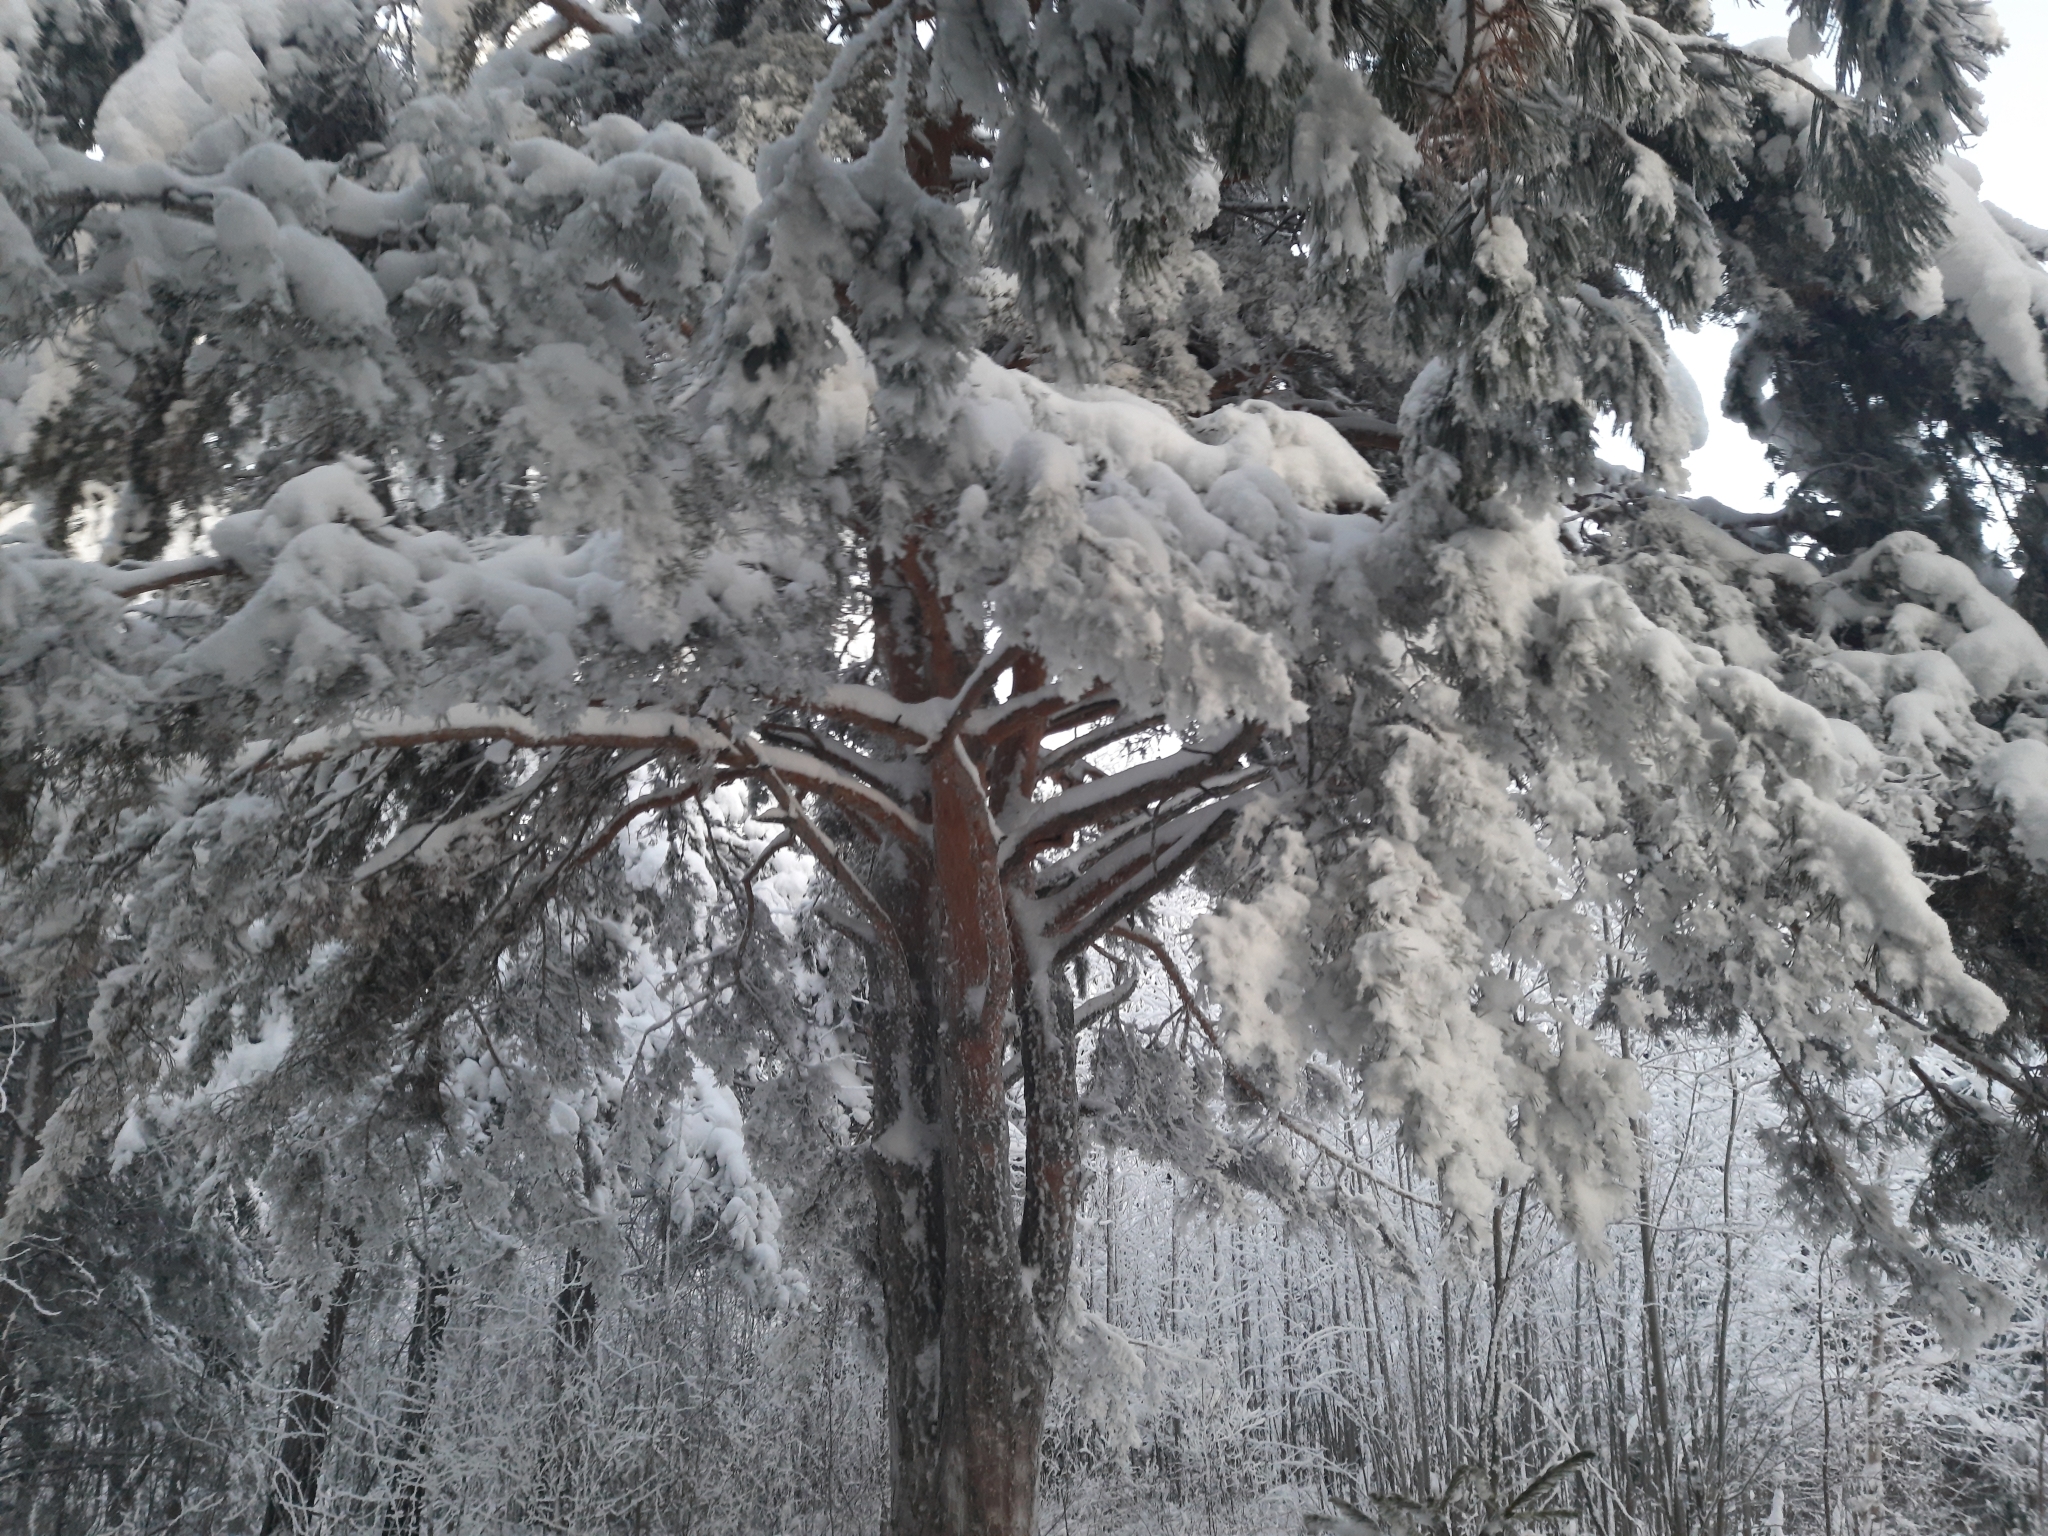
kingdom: Plantae
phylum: Tracheophyta
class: Pinopsida
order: Pinales
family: Pinaceae
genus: Pinus
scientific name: Pinus sylvestris
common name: Scots pine
